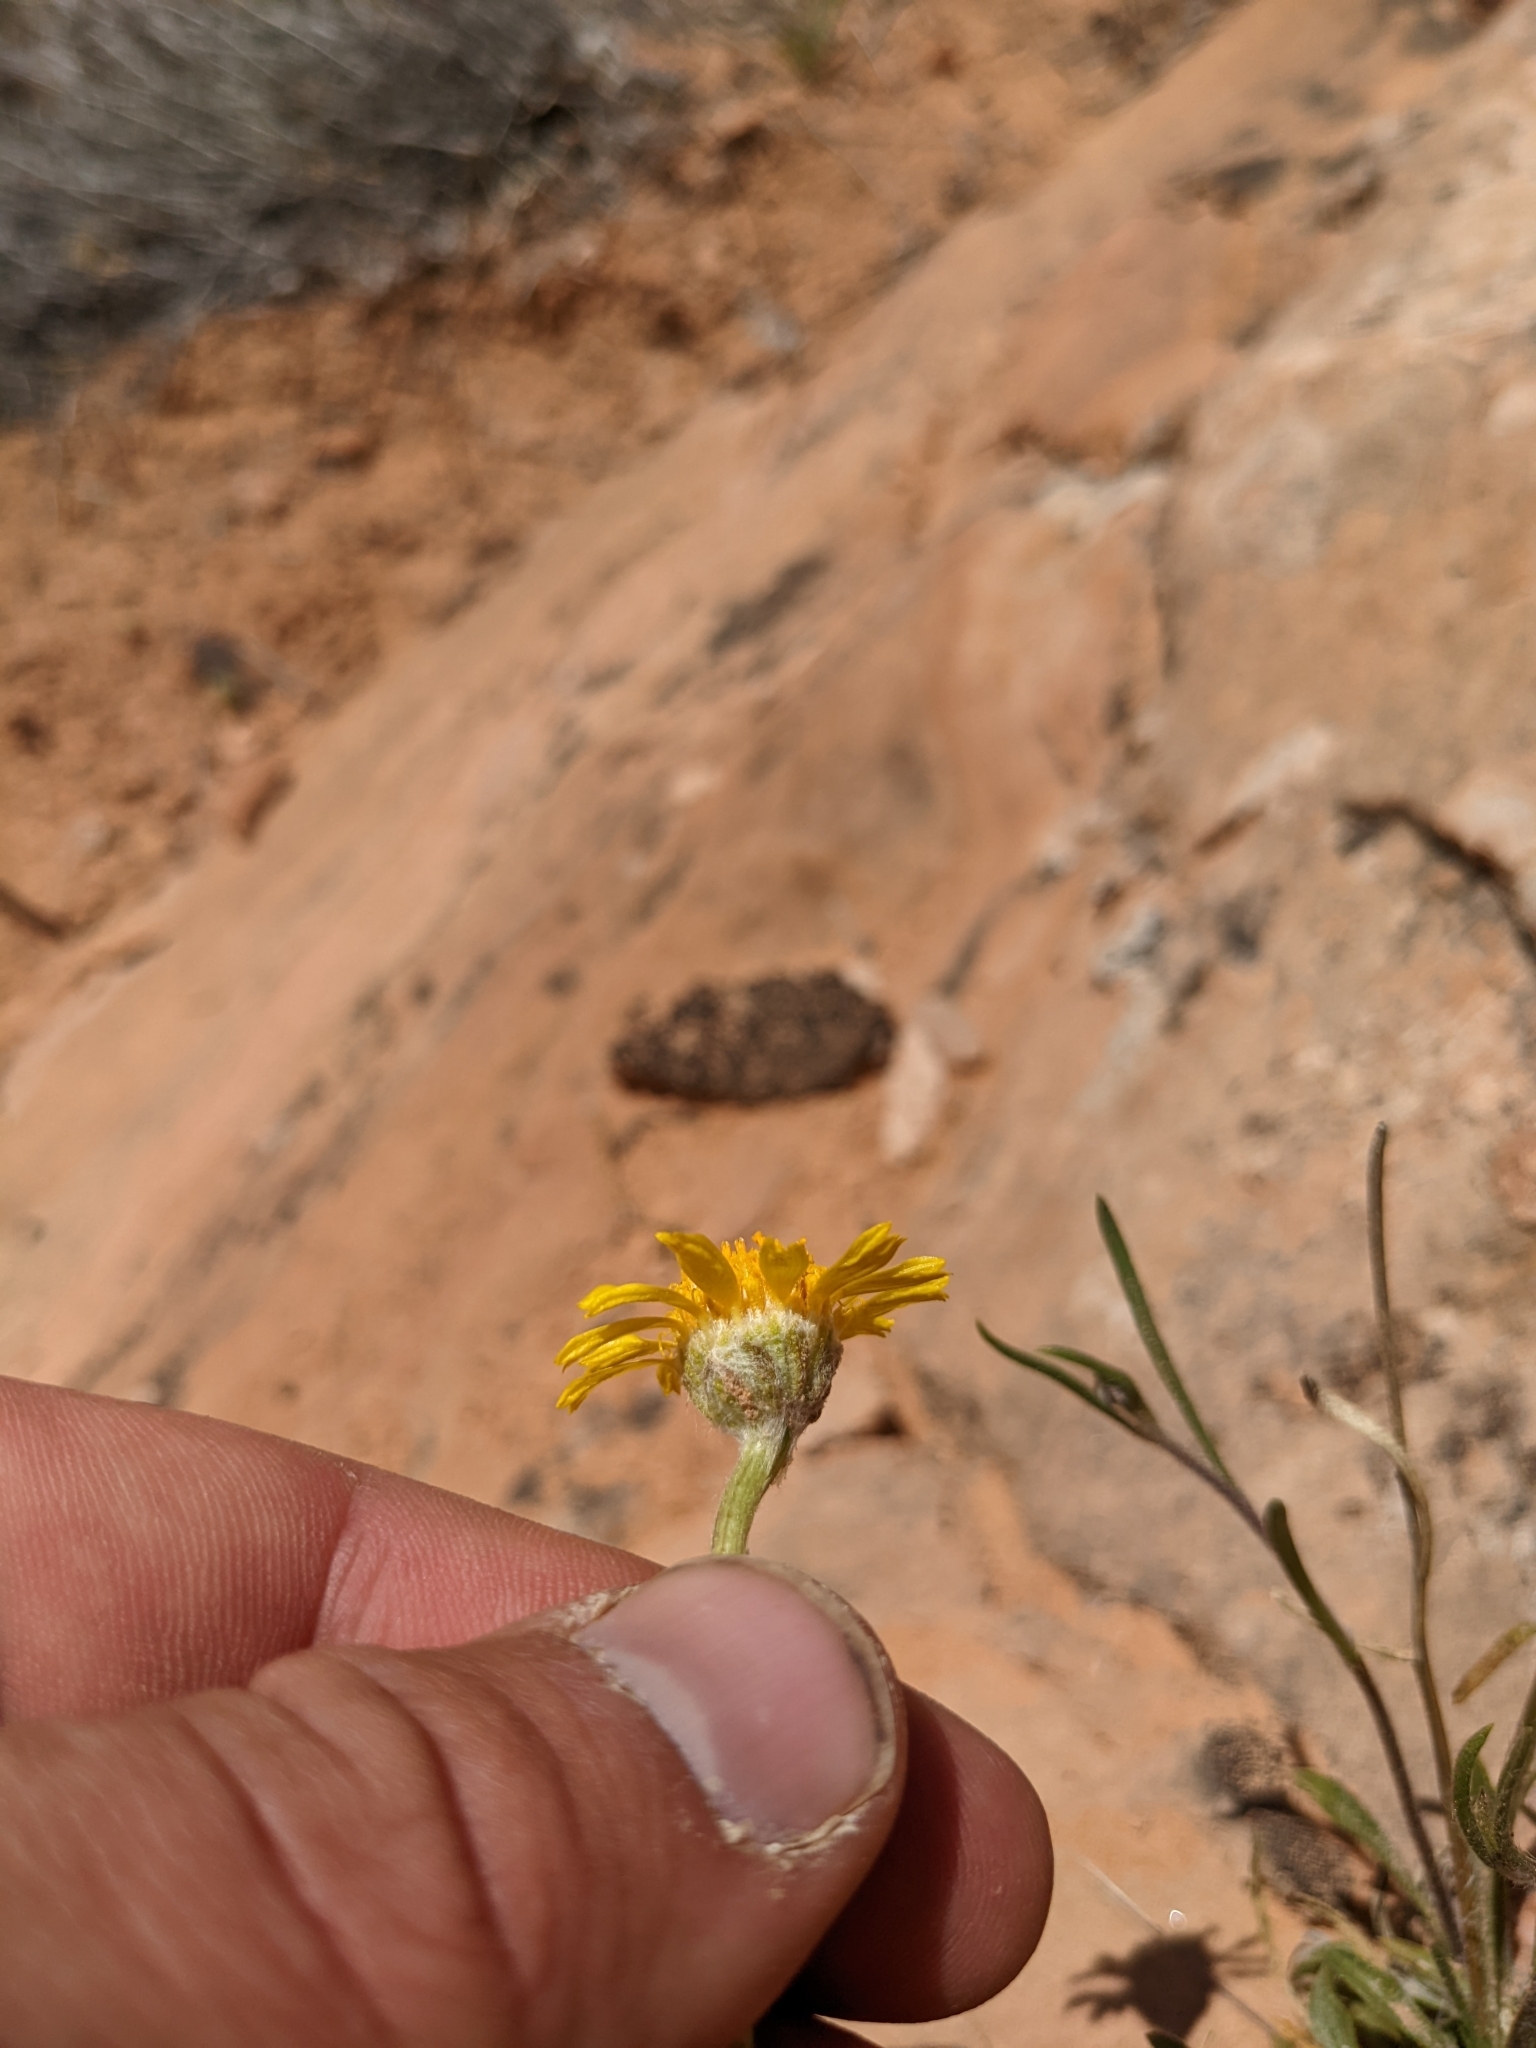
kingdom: Plantae
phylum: Tracheophyta
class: Magnoliopsida
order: Asterales
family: Asteraceae
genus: Tetraneuris
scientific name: Tetraneuris acaulis
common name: Butte marigold
